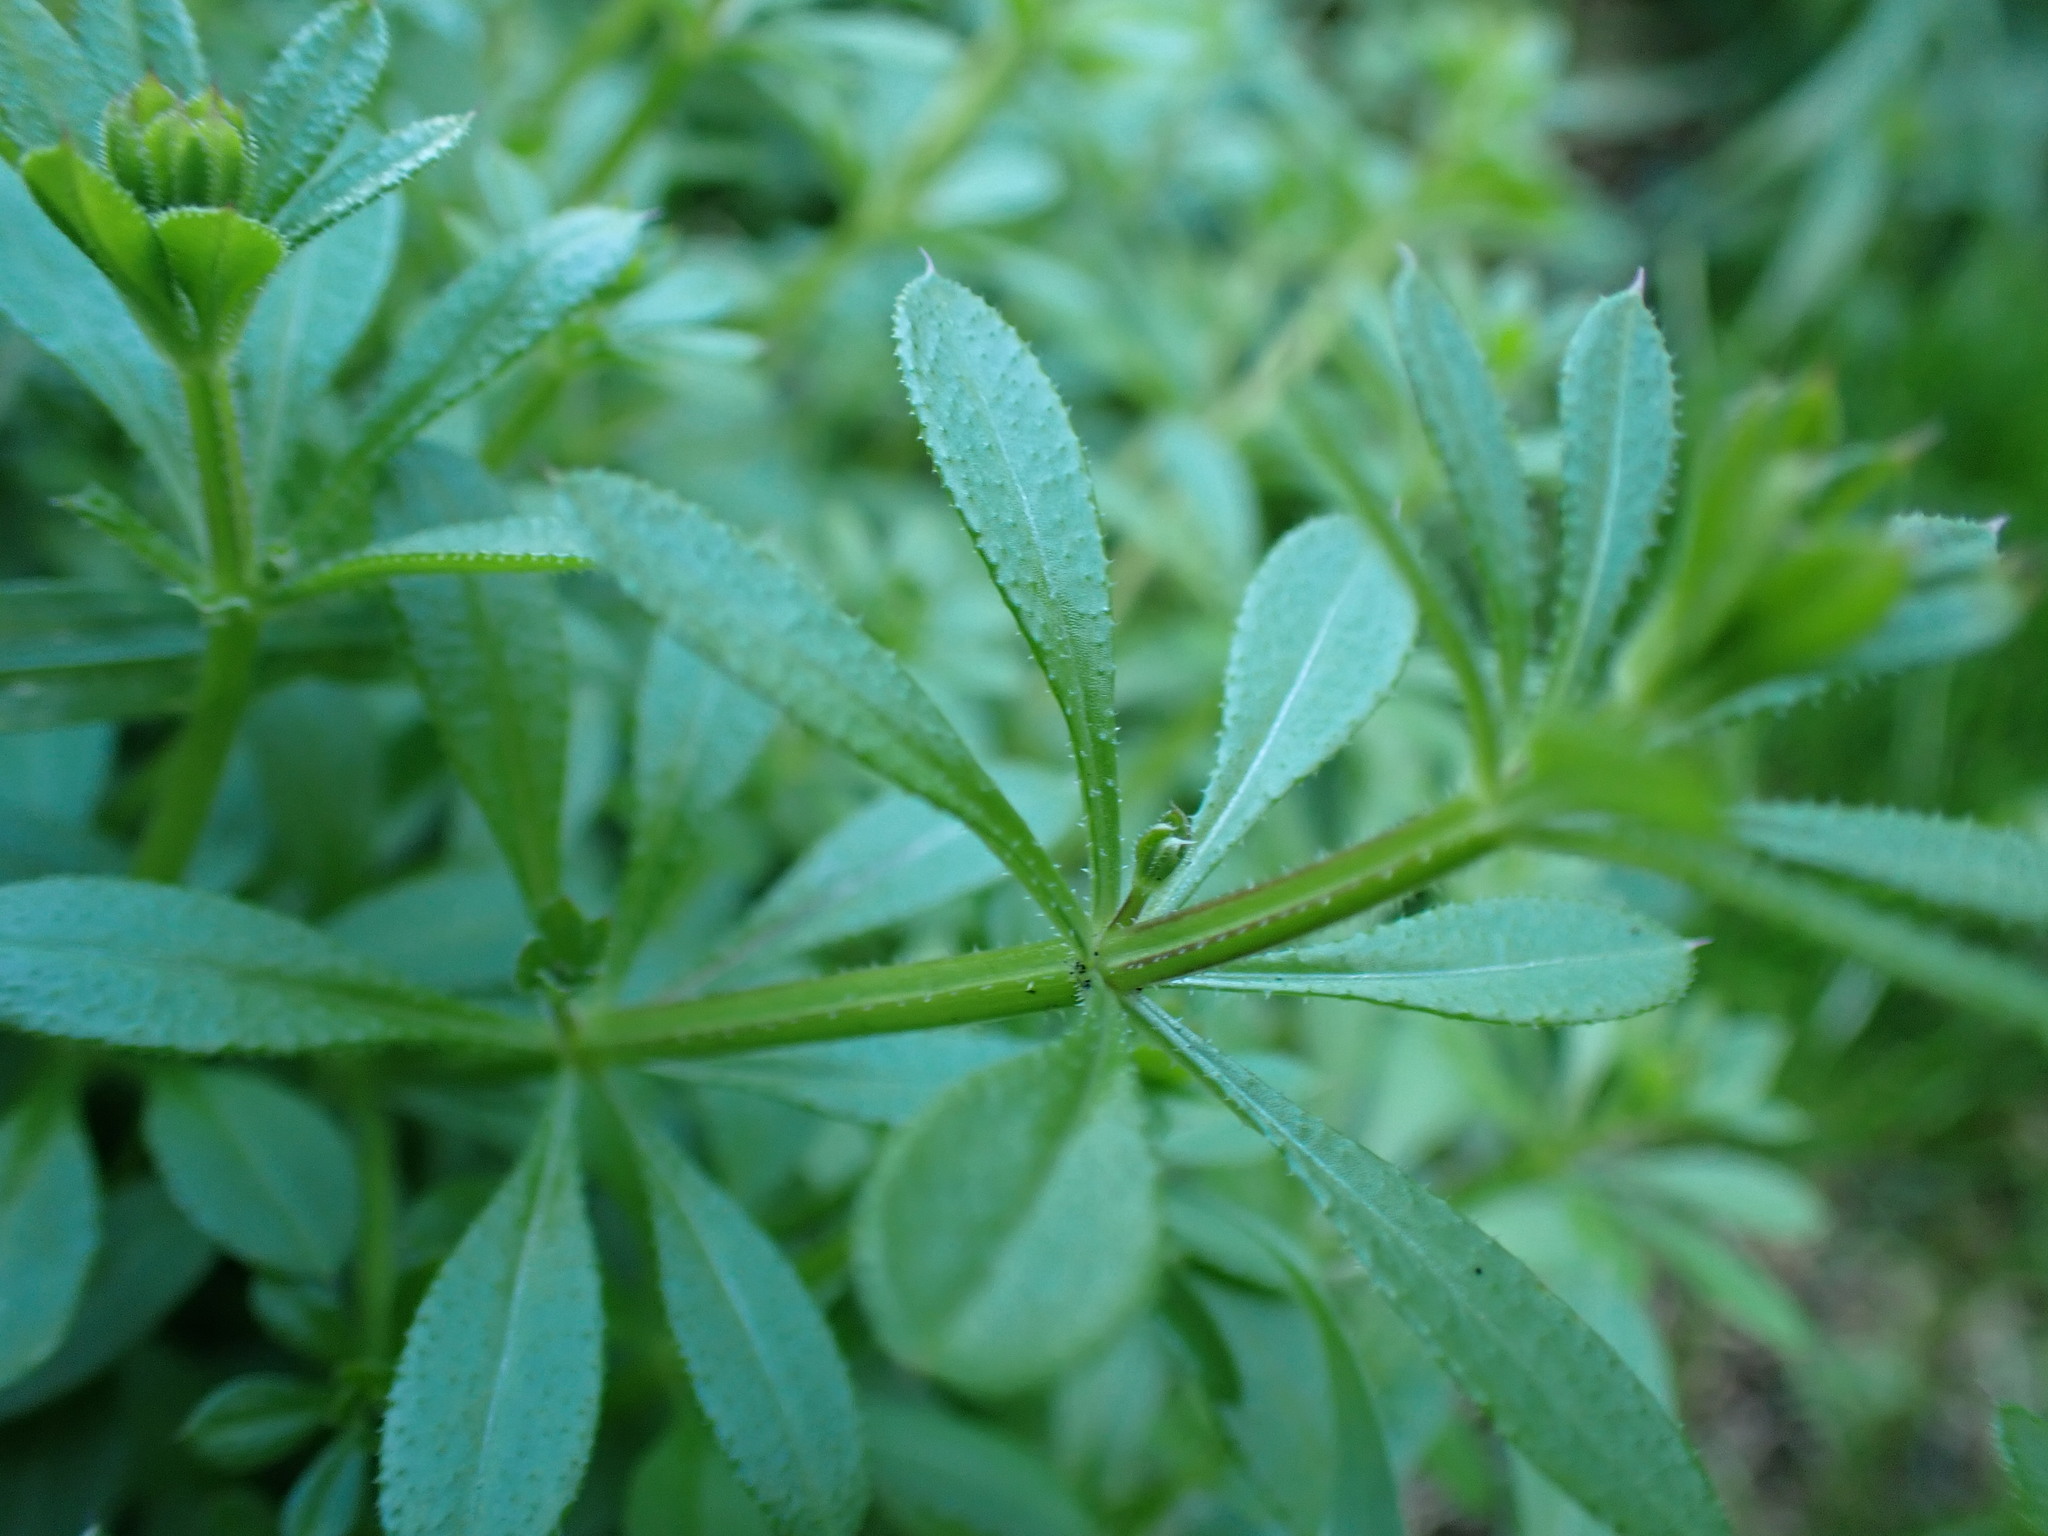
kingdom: Plantae
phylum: Tracheophyta
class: Magnoliopsida
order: Gentianales
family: Rubiaceae
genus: Galium
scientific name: Galium aparine
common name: Cleavers
